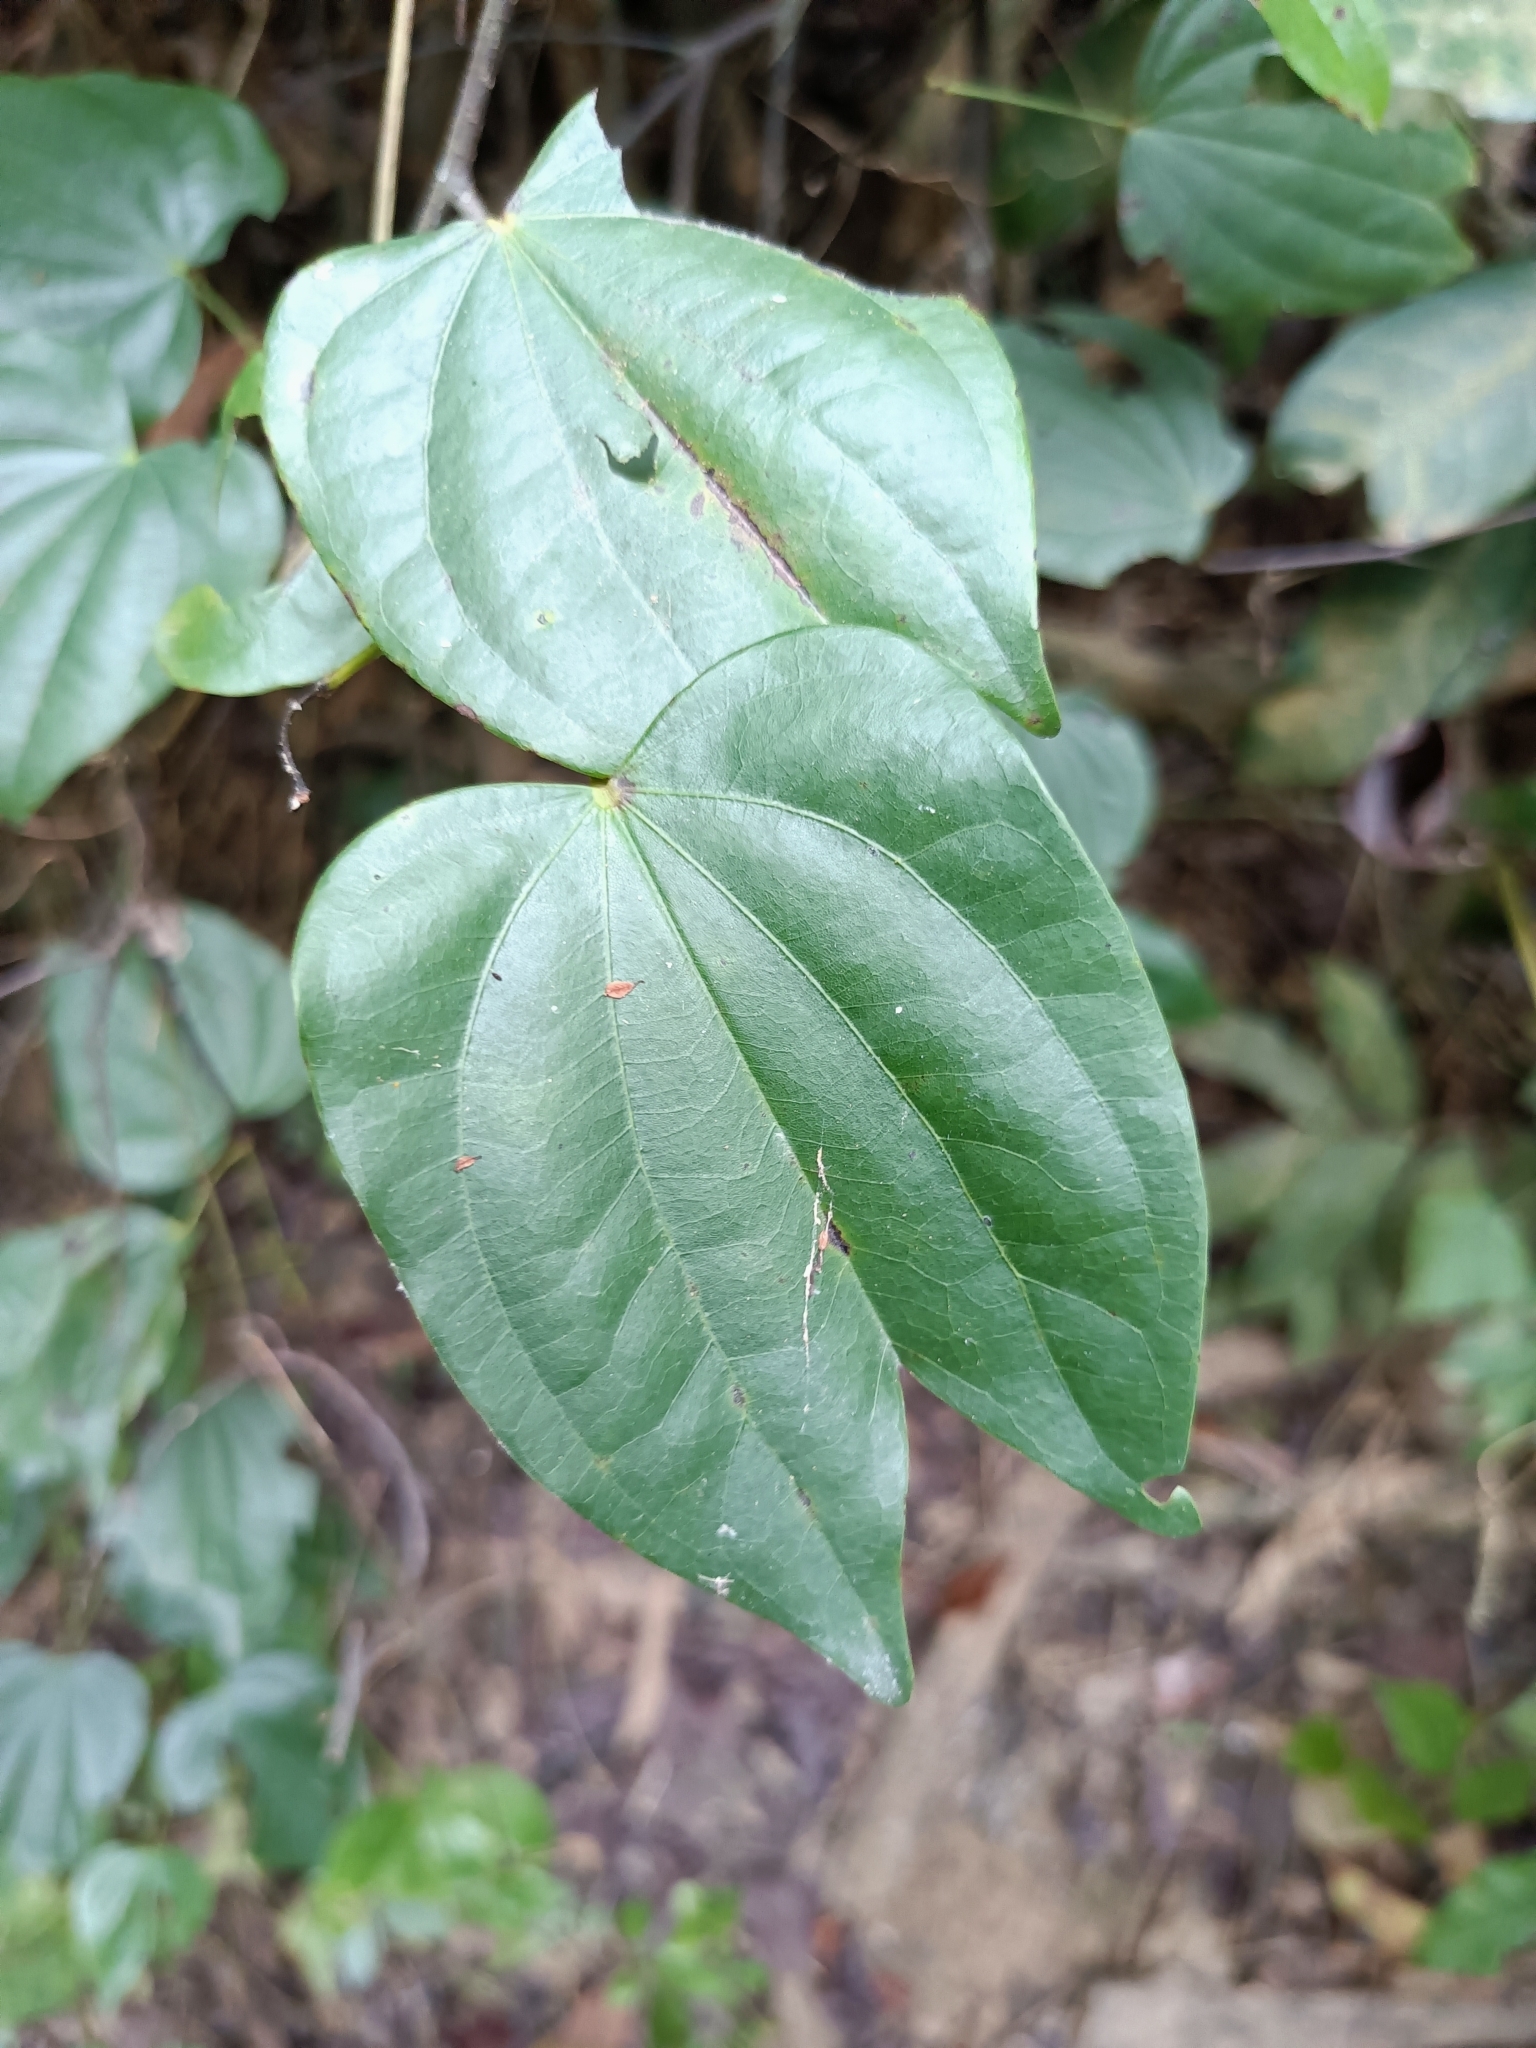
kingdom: Plantae
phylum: Tracheophyta
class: Magnoliopsida
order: Fabales
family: Fabaceae
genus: Phanera
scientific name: Phanera championii
